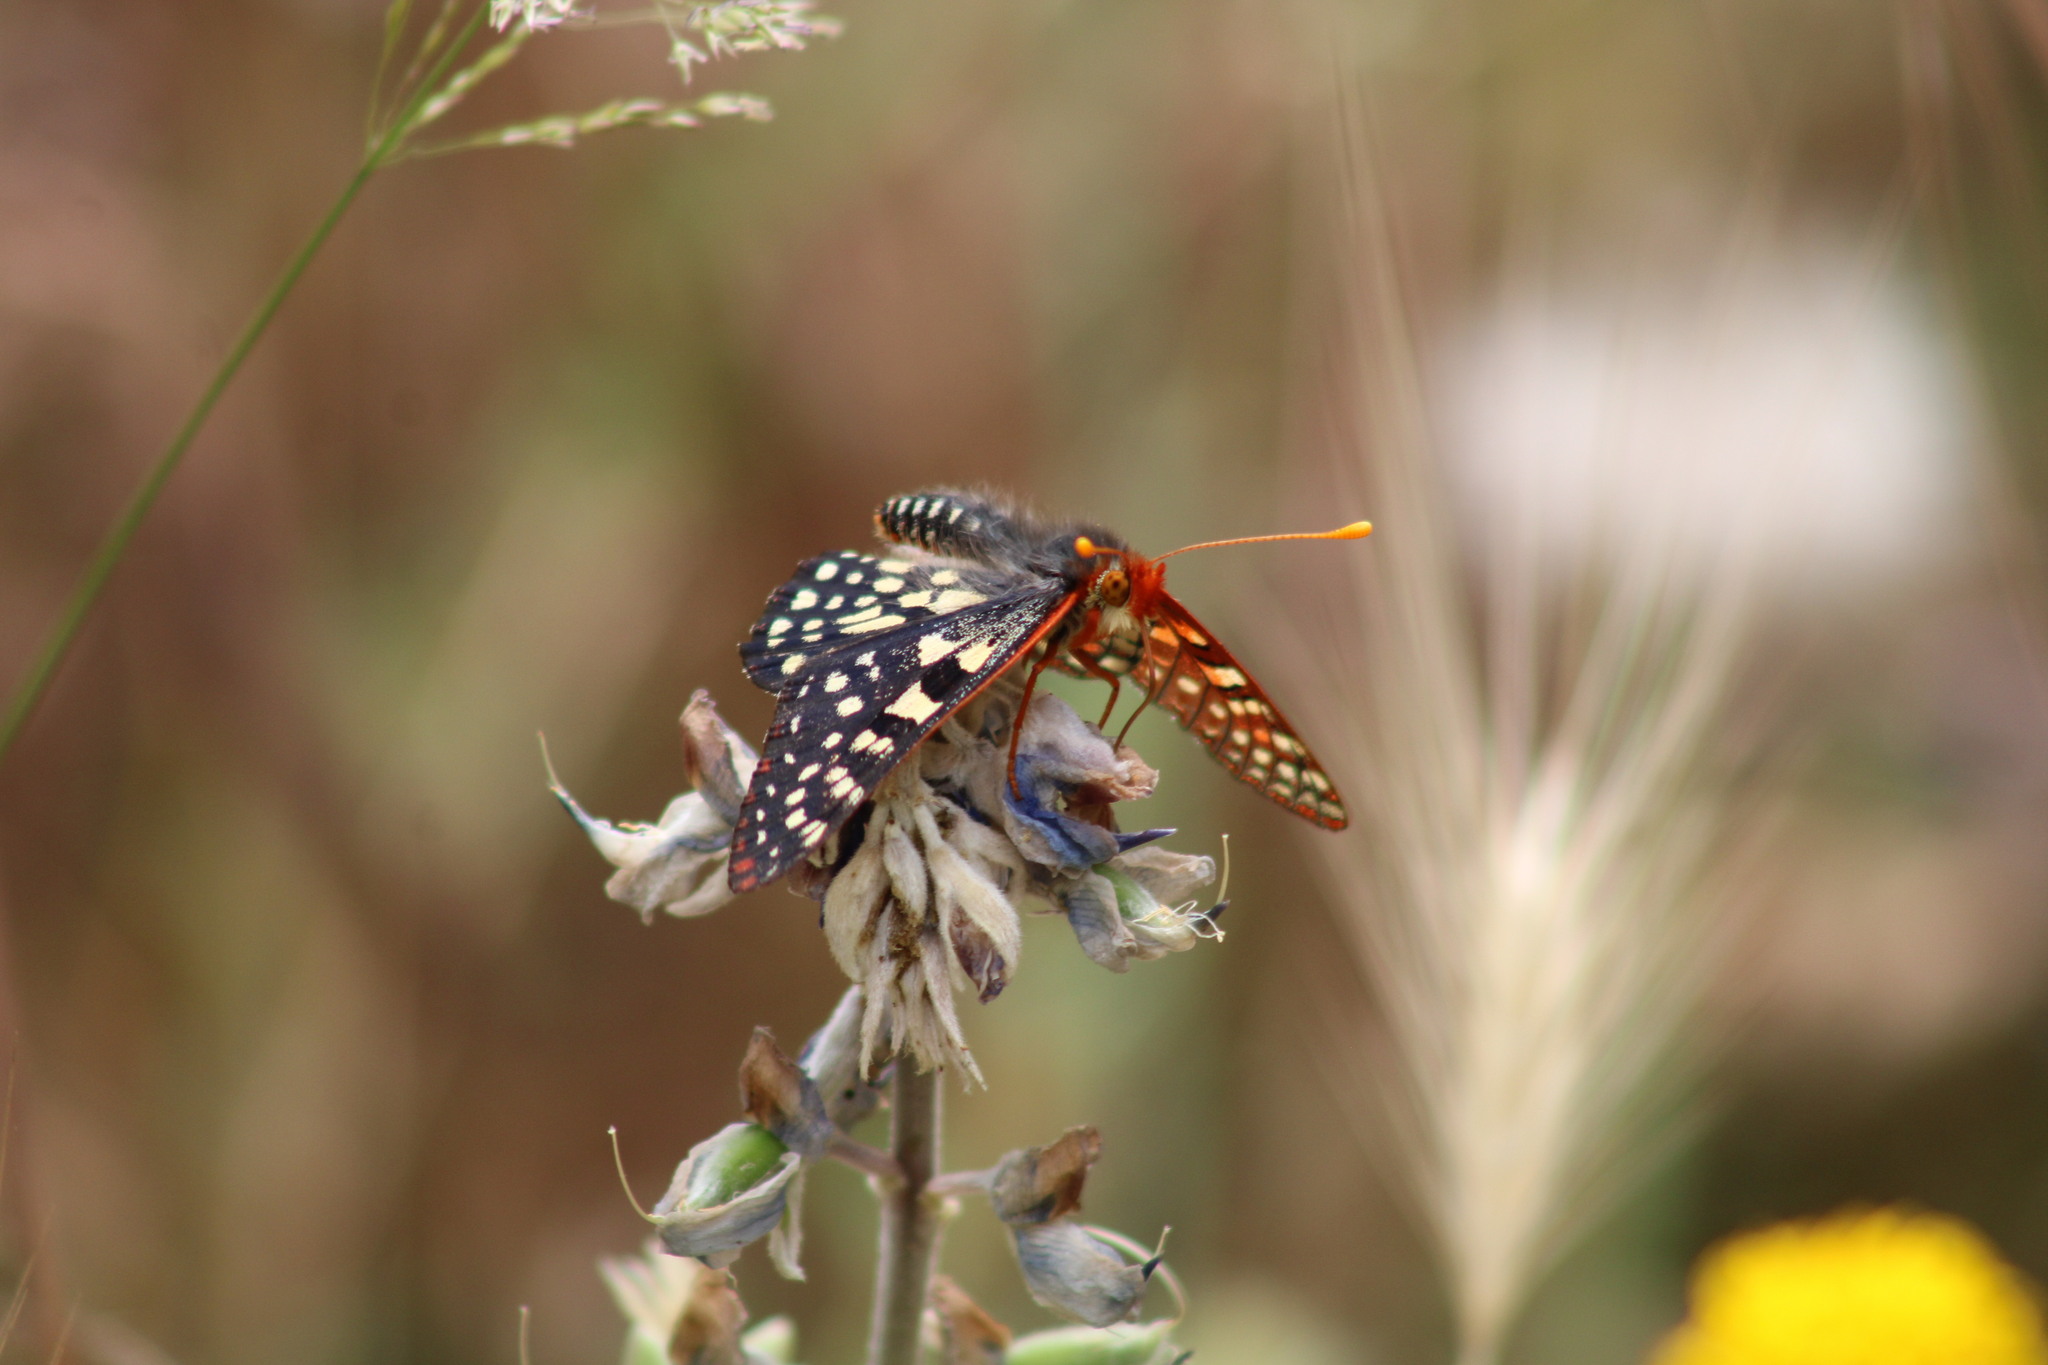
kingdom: Animalia
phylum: Arthropoda
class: Insecta
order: Lepidoptera
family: Nymphalidae
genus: Occidryas
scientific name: Occidryas chalcedona
